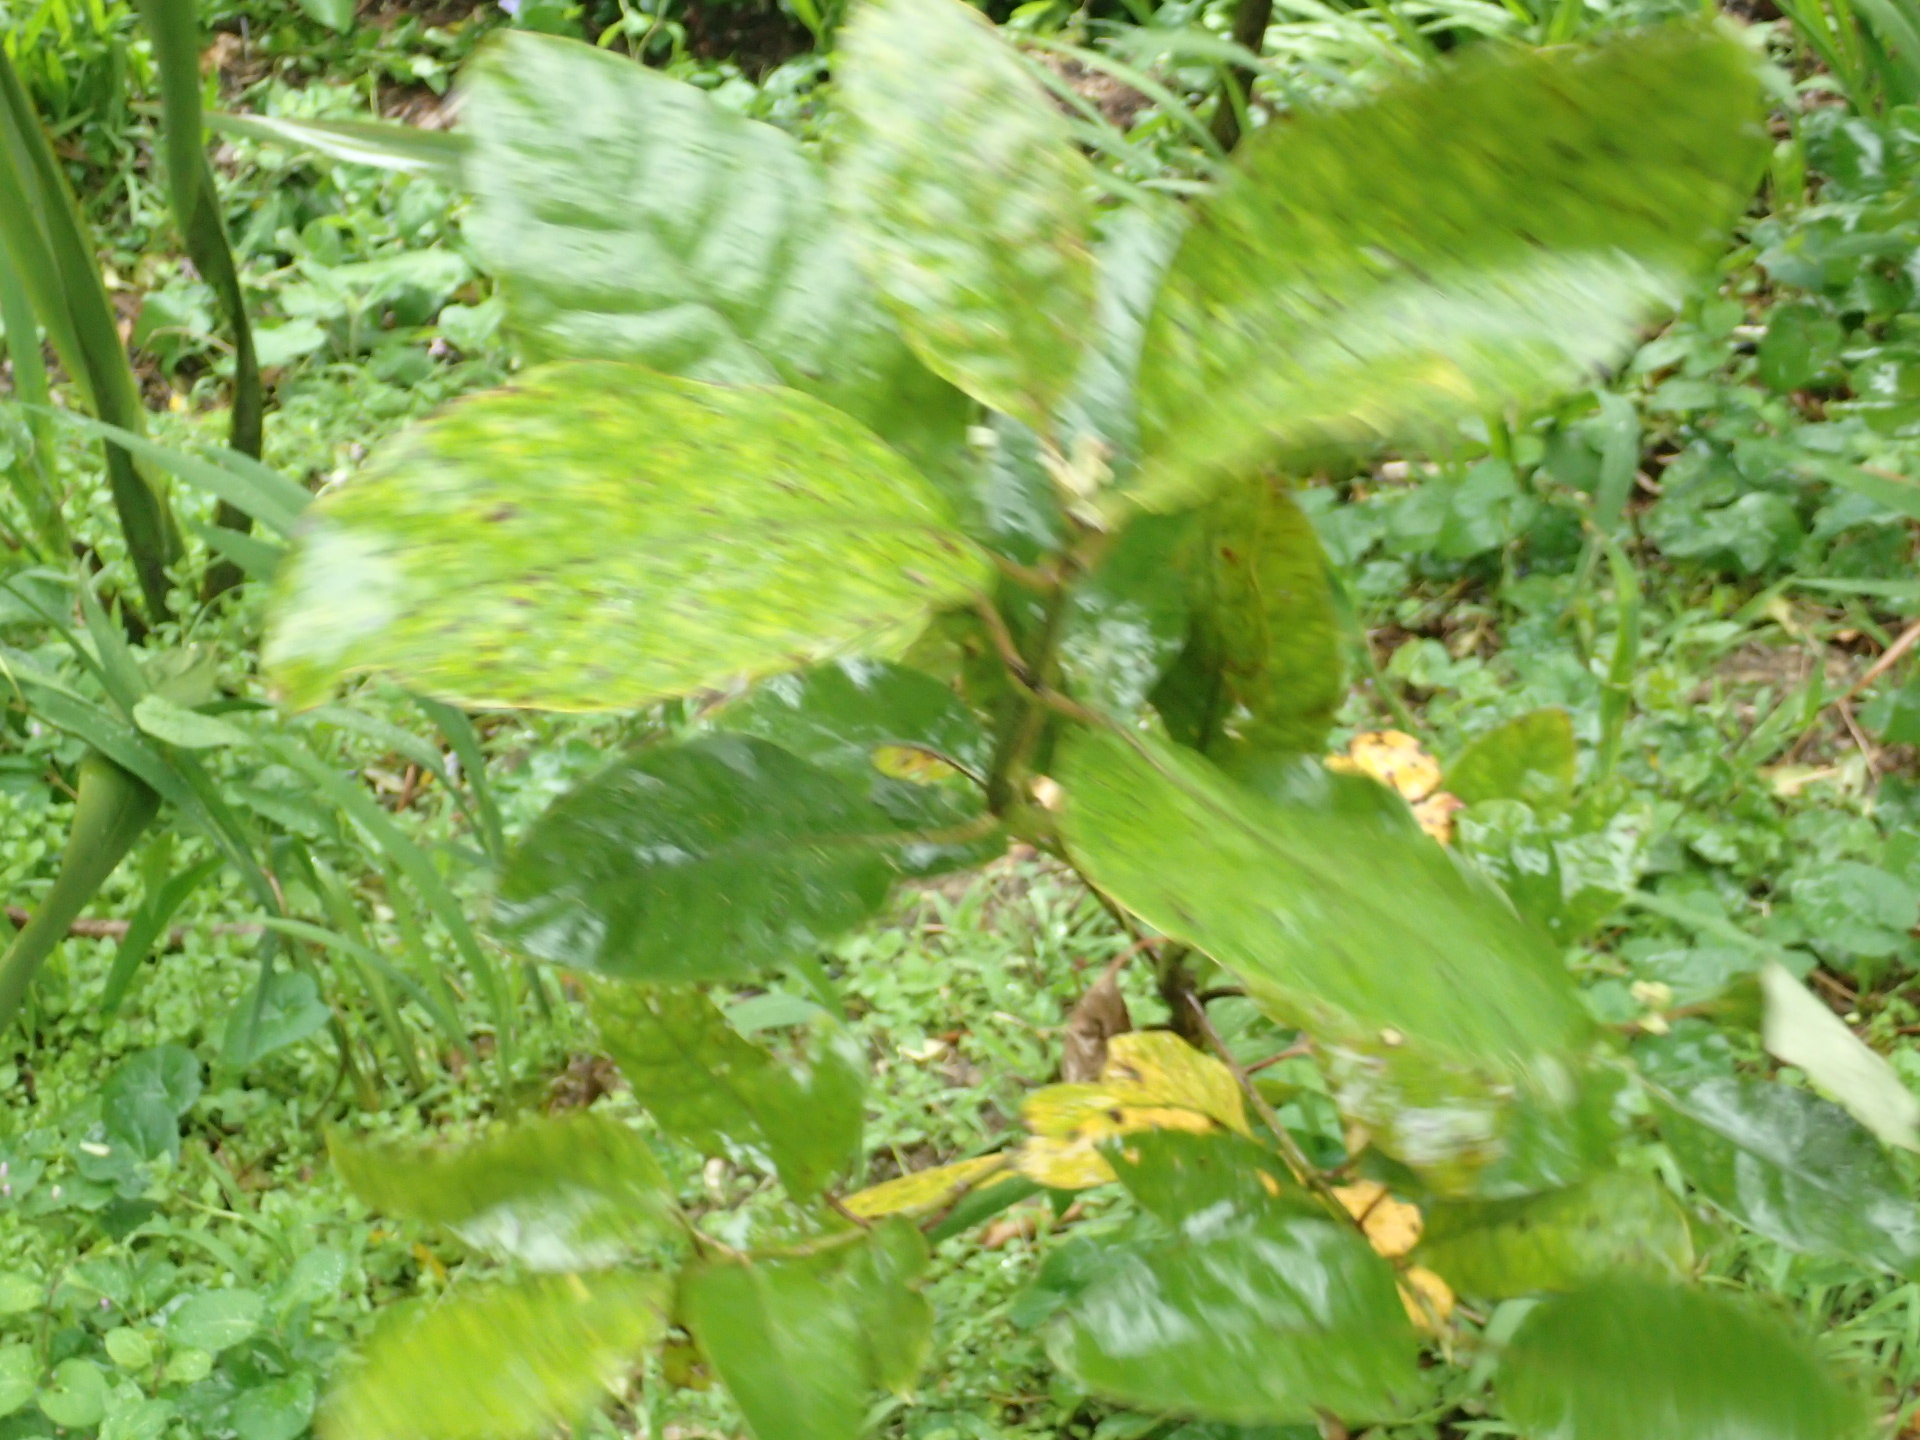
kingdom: Plantae
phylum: Tracheophyta
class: Magnoliopsida
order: Gentianales
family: Rubiaceae
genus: Coprosma
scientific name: Coprosma autumnalis
